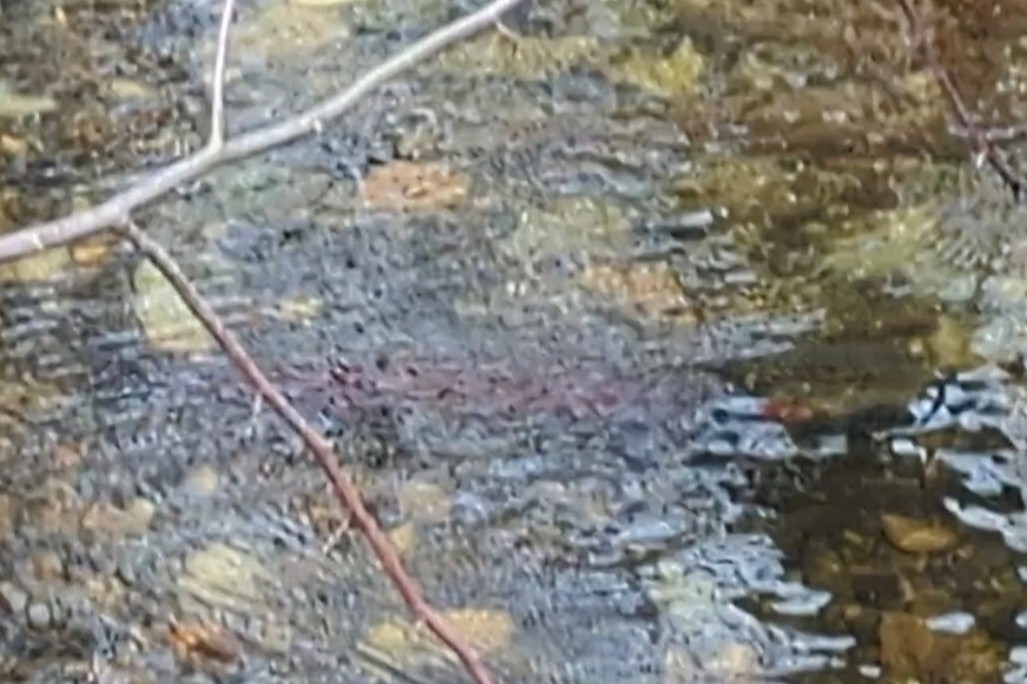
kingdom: Animalia
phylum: Chordata
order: Salmoniformes
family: Salmonidae
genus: Oncorhynchus
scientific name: Oncorhynchus kisutch
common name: Coho salmon
